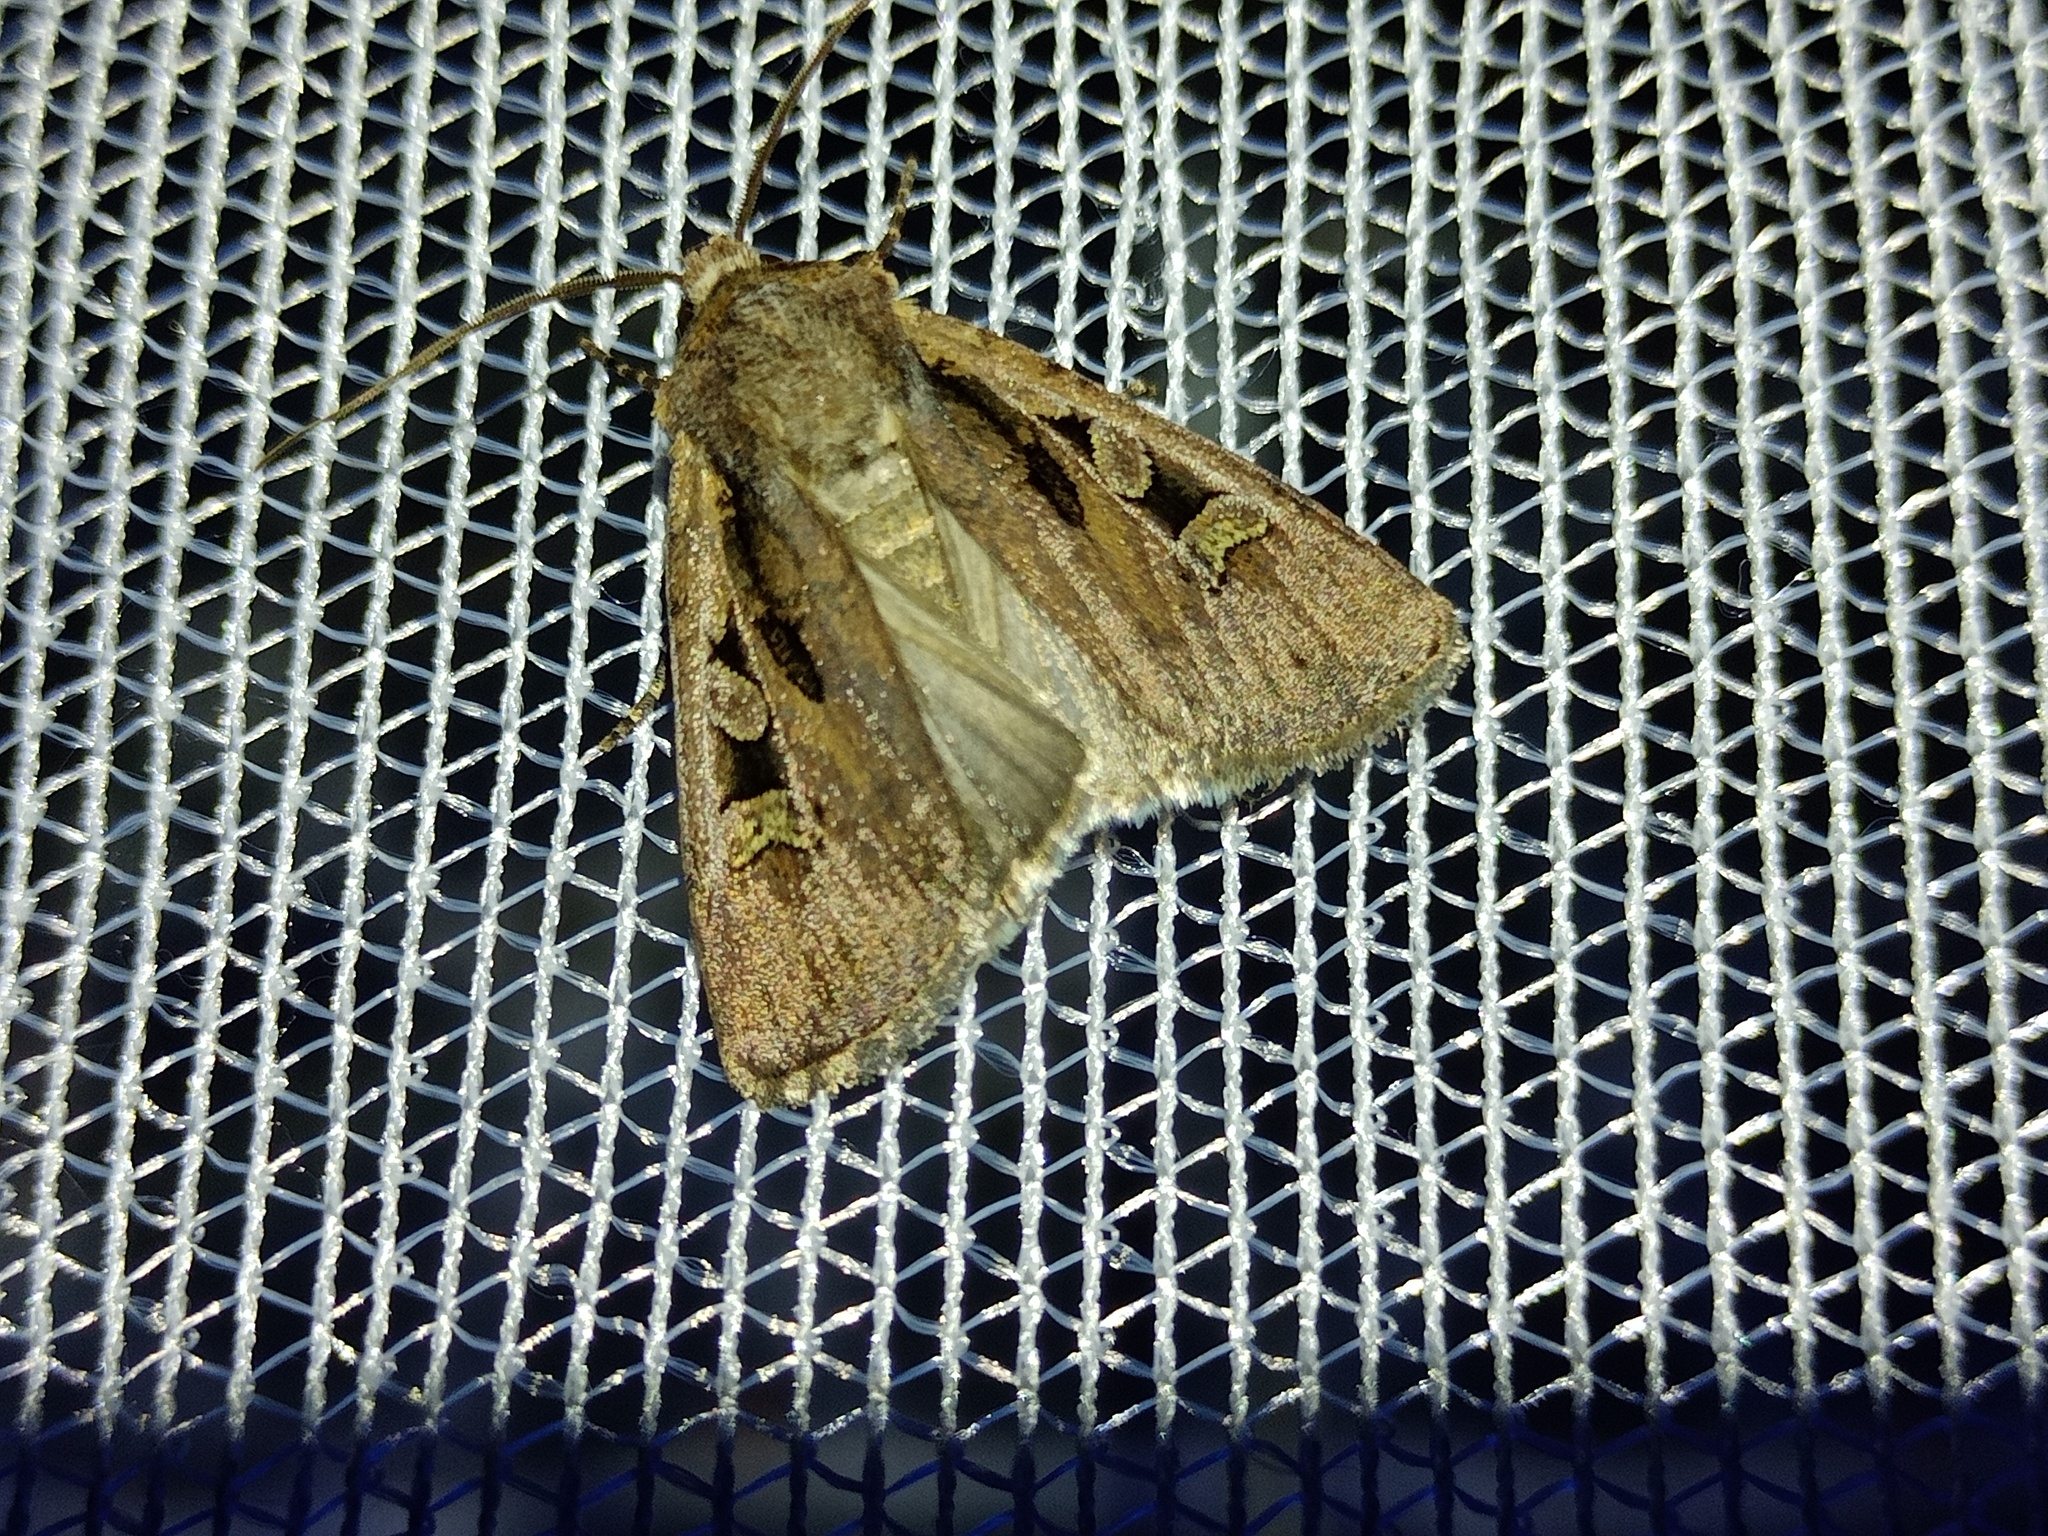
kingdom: Animalia
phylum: Arthropoda
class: Insecta
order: Lepidoptera
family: Noctuidae
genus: Euxoa
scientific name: Euxoa obelisca
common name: Square-spot dart
